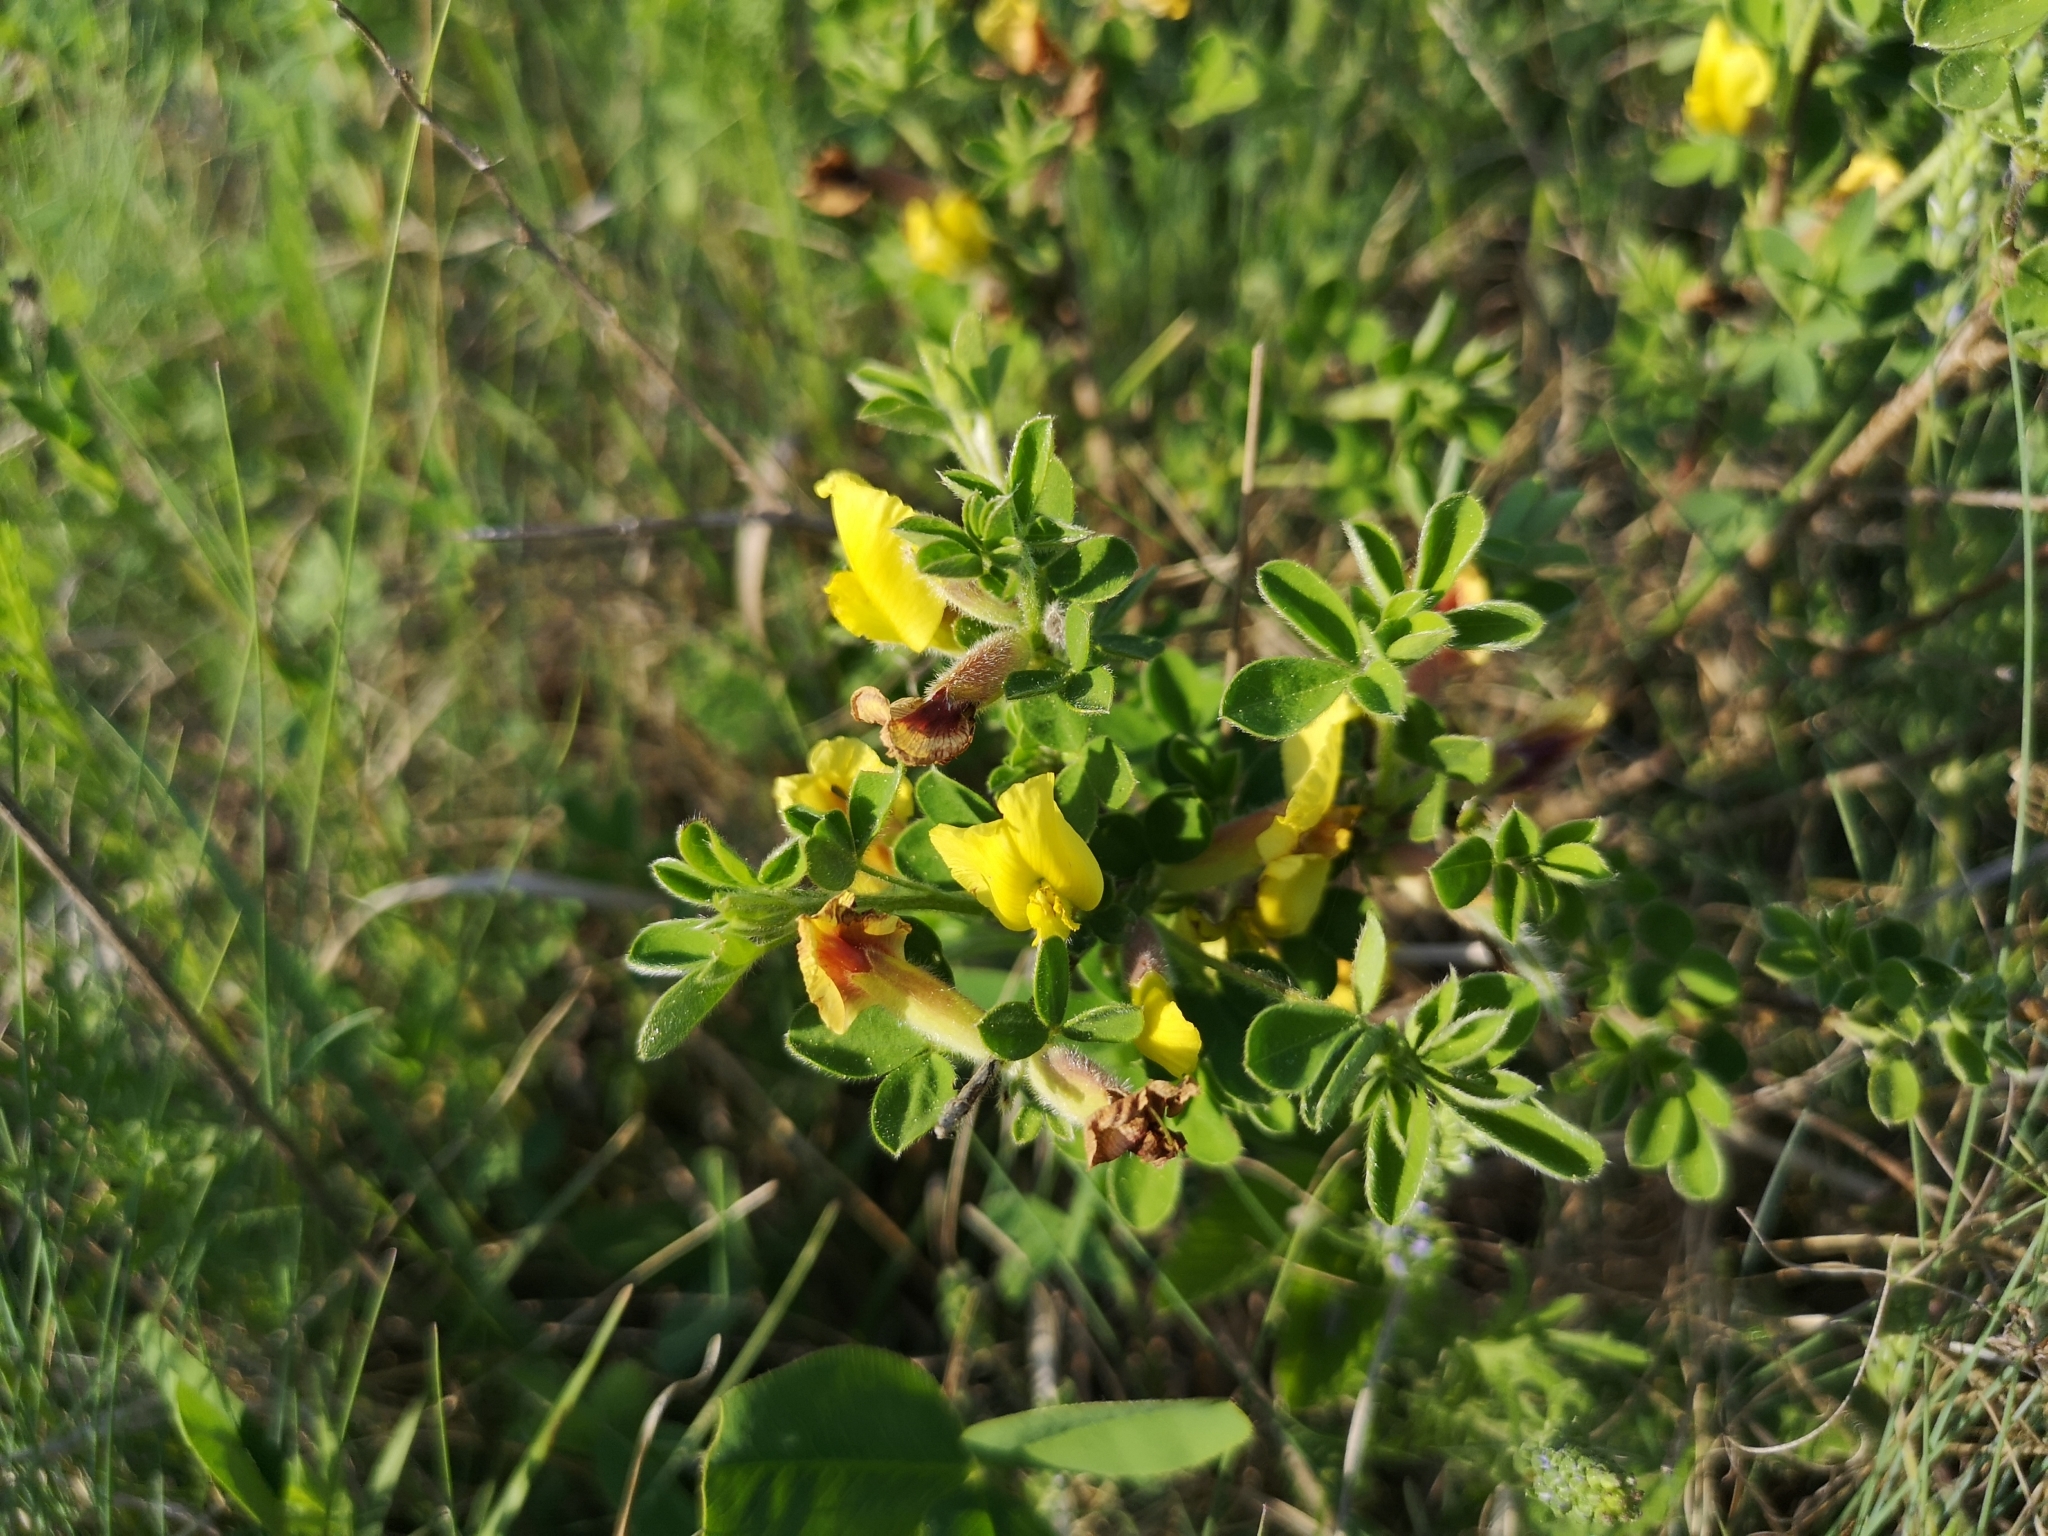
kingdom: Plantae
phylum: Tracheophyta
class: Magnoliopsida
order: Fabales
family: Fabaceae
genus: Chamaecytisus
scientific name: Chamaecytisus hirsutus
